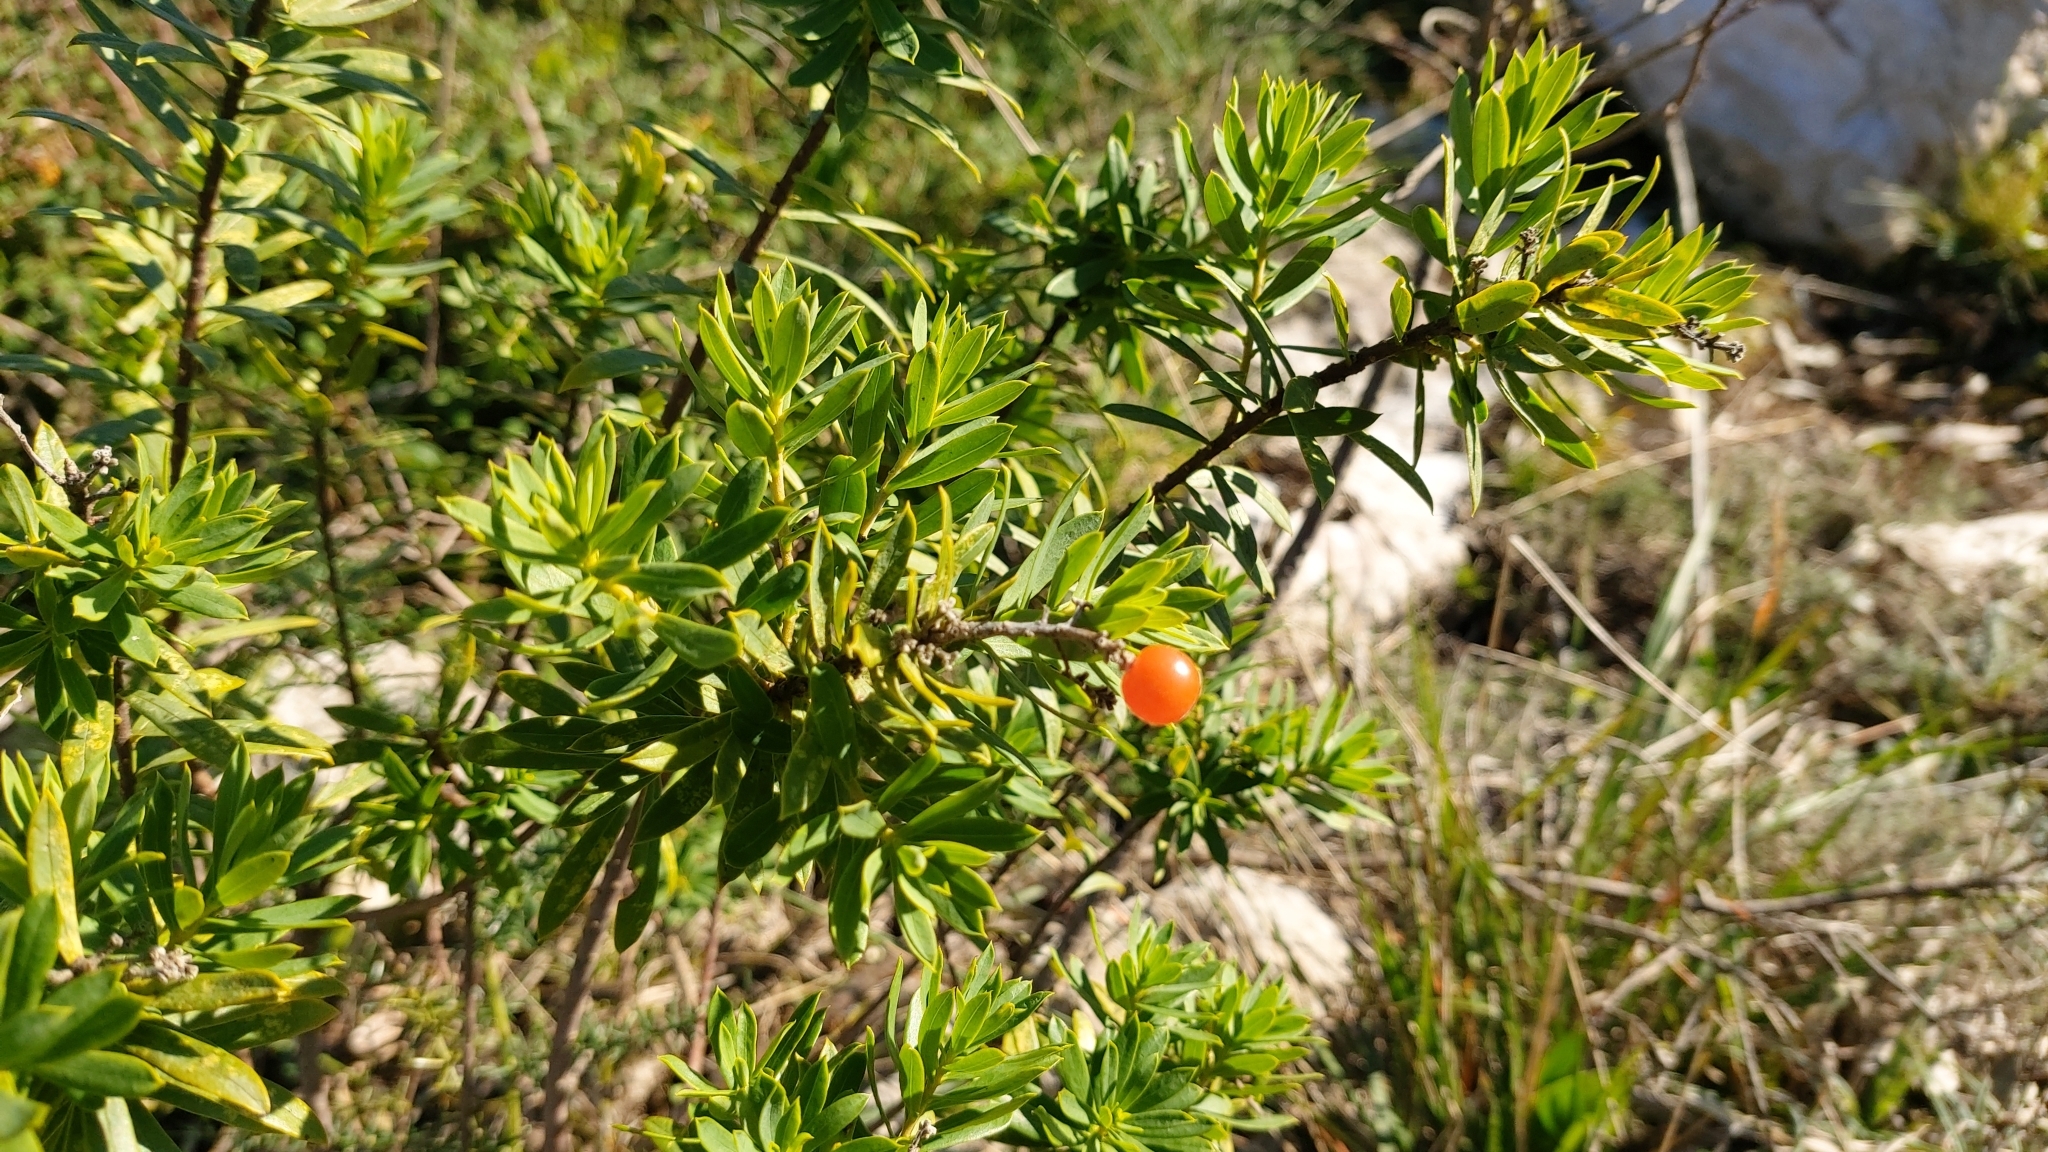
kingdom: Plantae
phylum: Tracheophyta
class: Magnoliopsida
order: Malvales
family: Thymelaeaceae
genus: Daphne
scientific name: Daphne gnidium
